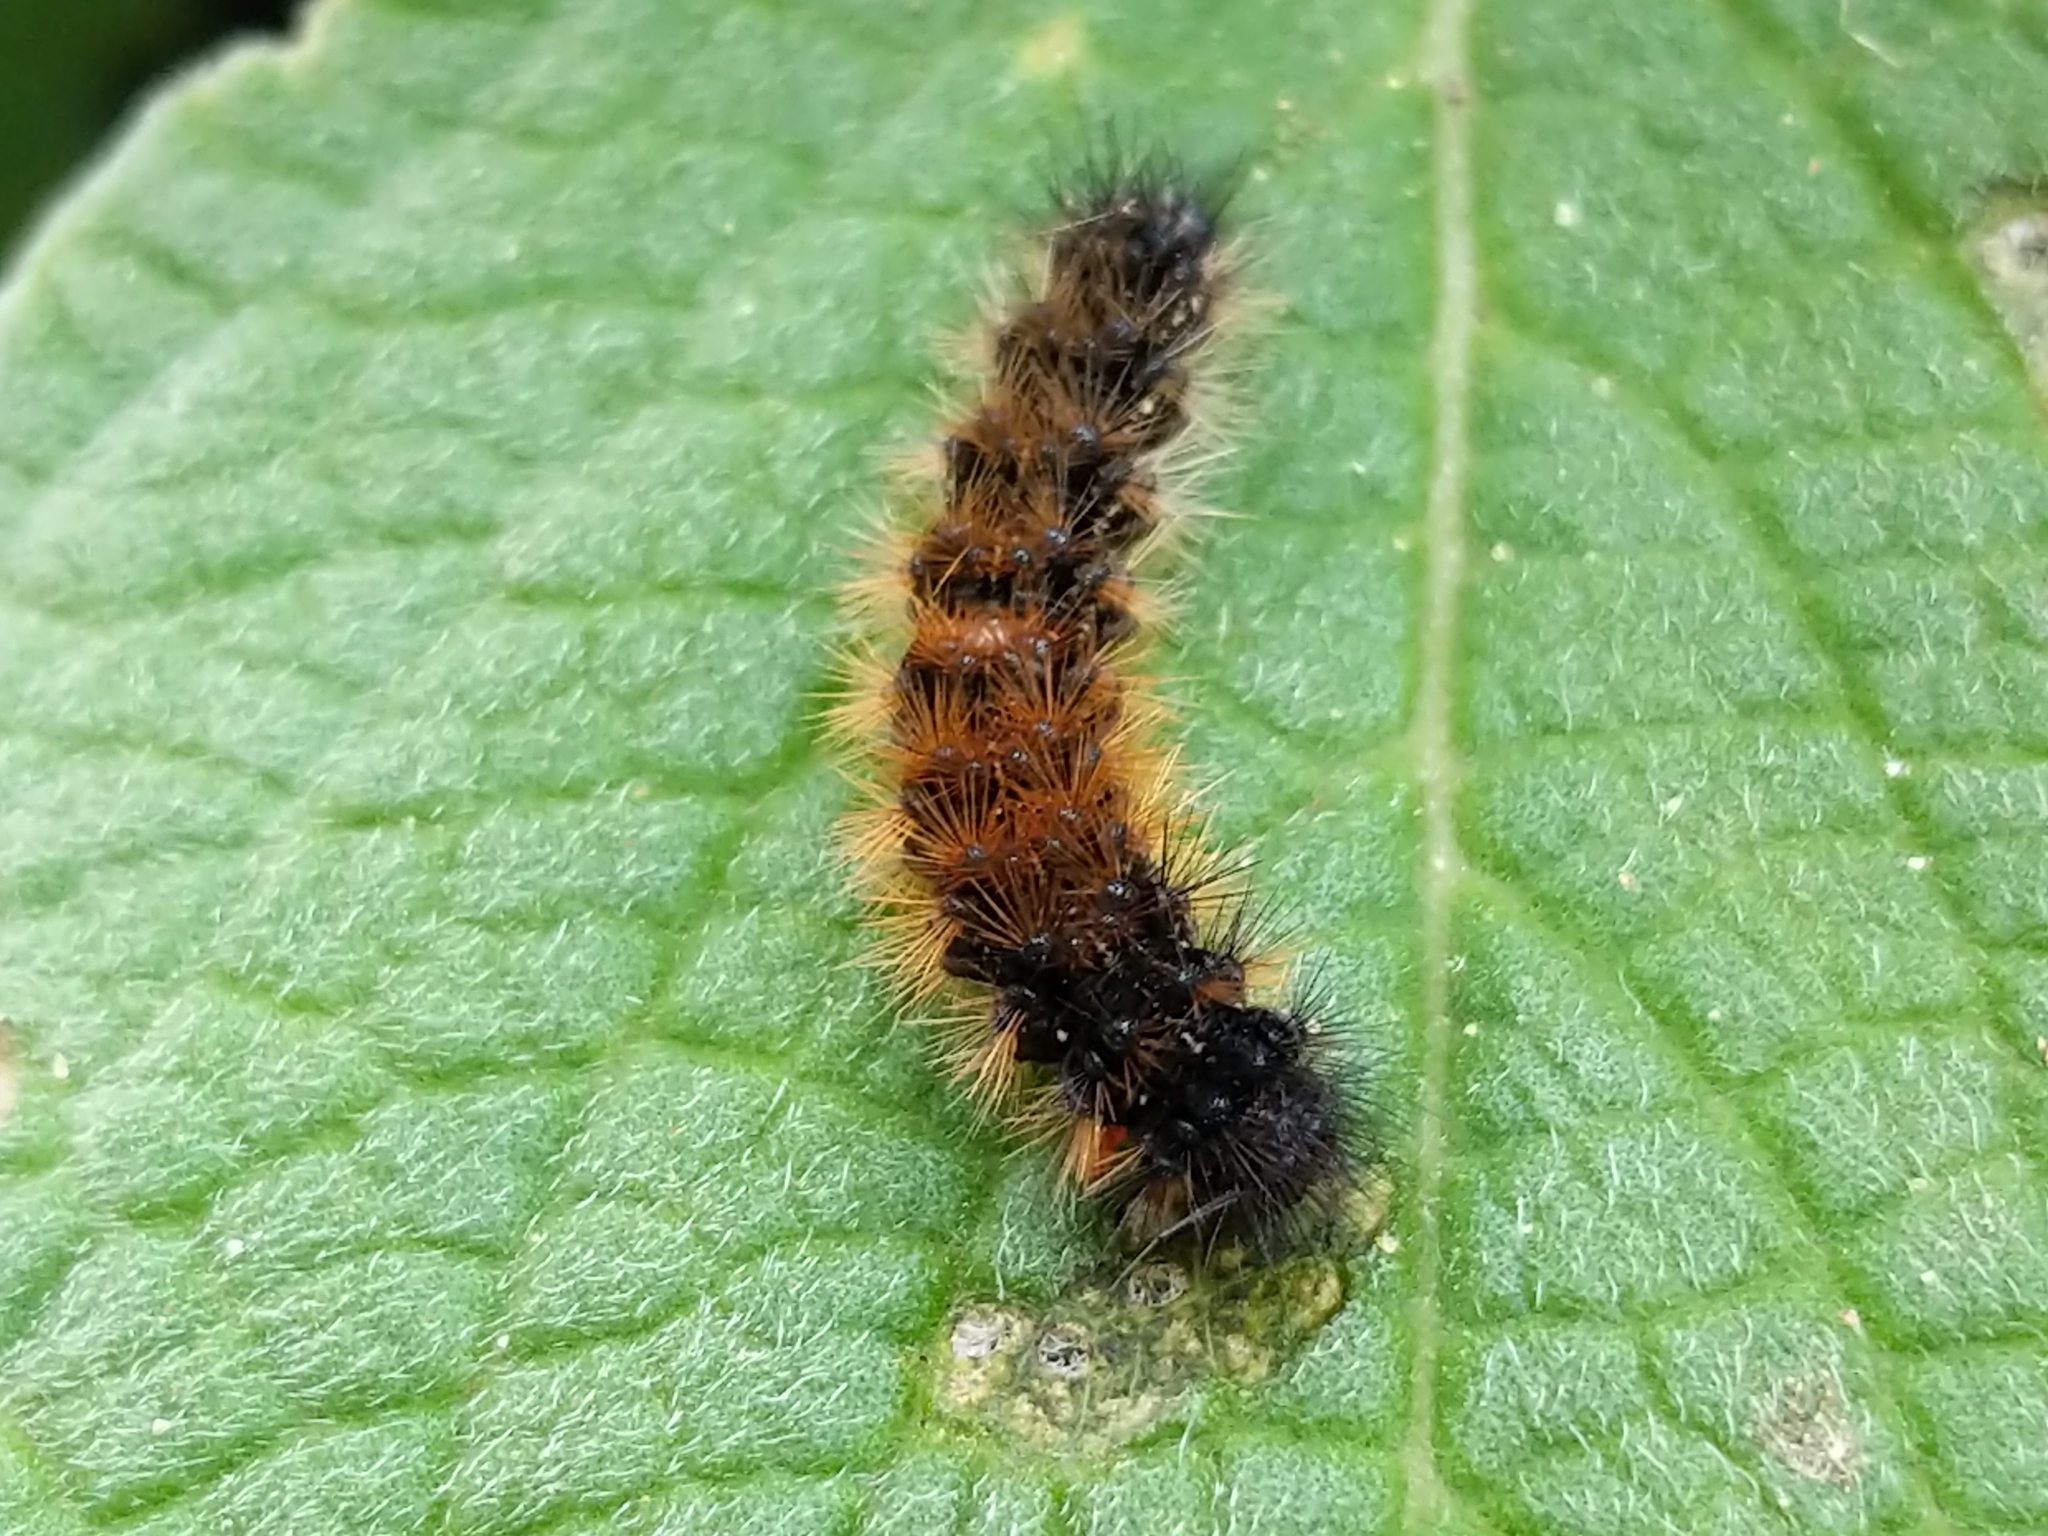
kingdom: Animalia
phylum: Arthropoda
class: Insecta
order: Lepidoptera
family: Erebidae
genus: Ardices
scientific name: Ardices glatignyi
